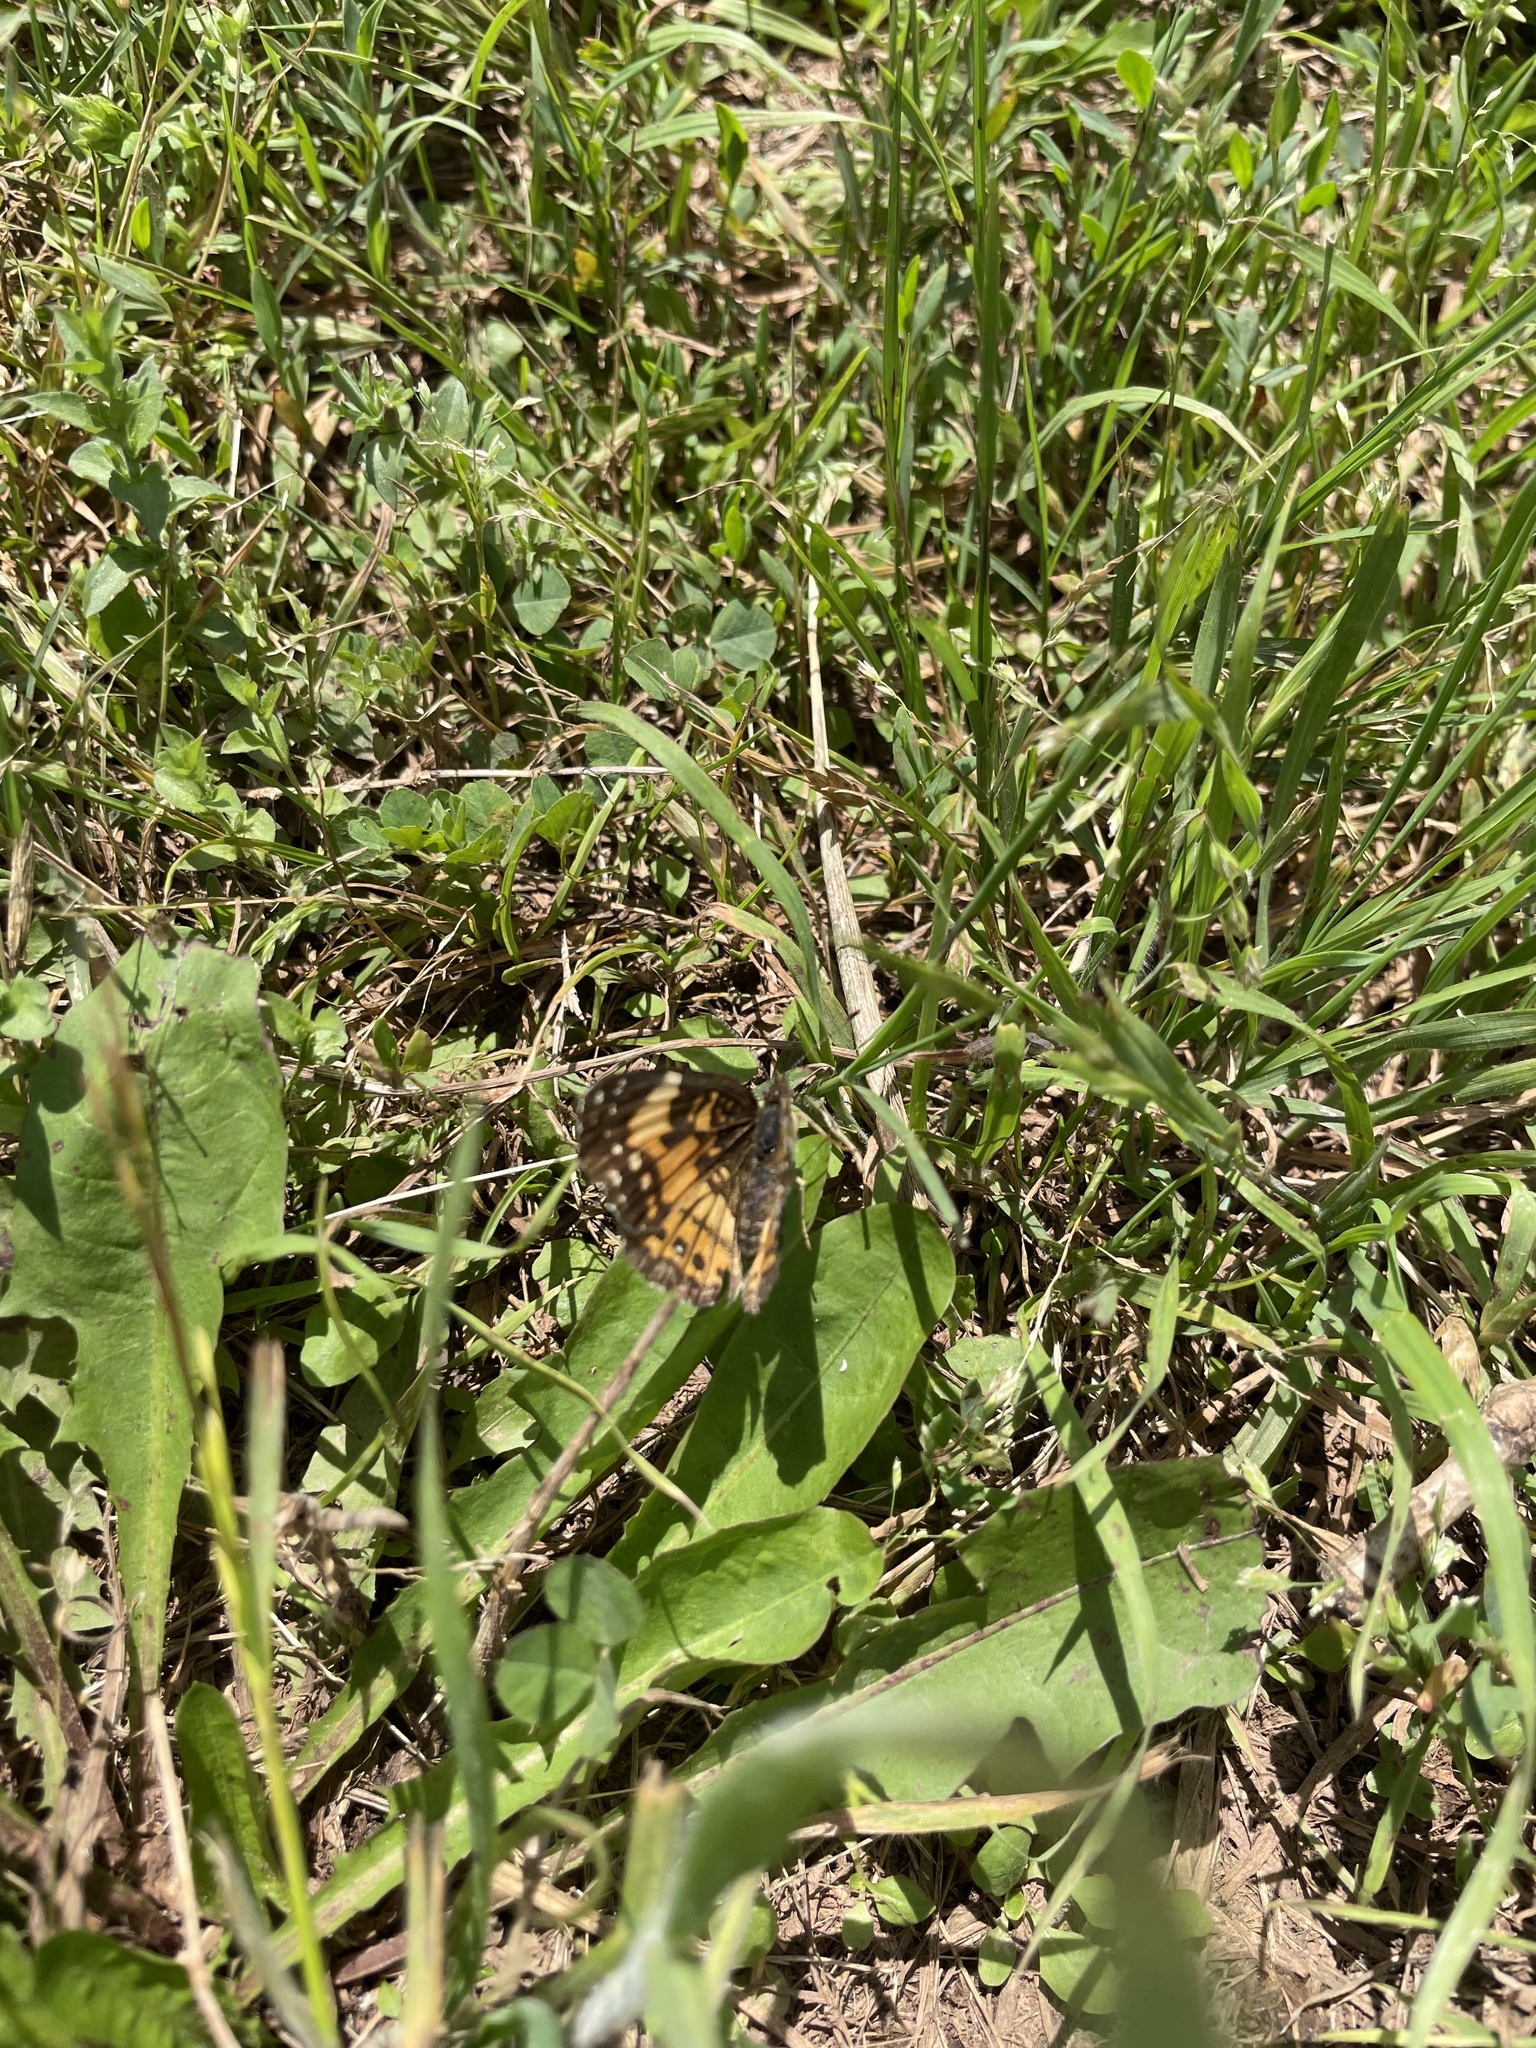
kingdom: Animalia
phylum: Arthropoda
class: Insecta
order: Lepidoptera
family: Nymphalidae
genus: Chlosyne
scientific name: Chlosyne nycteis
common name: Silvery checkerspot
